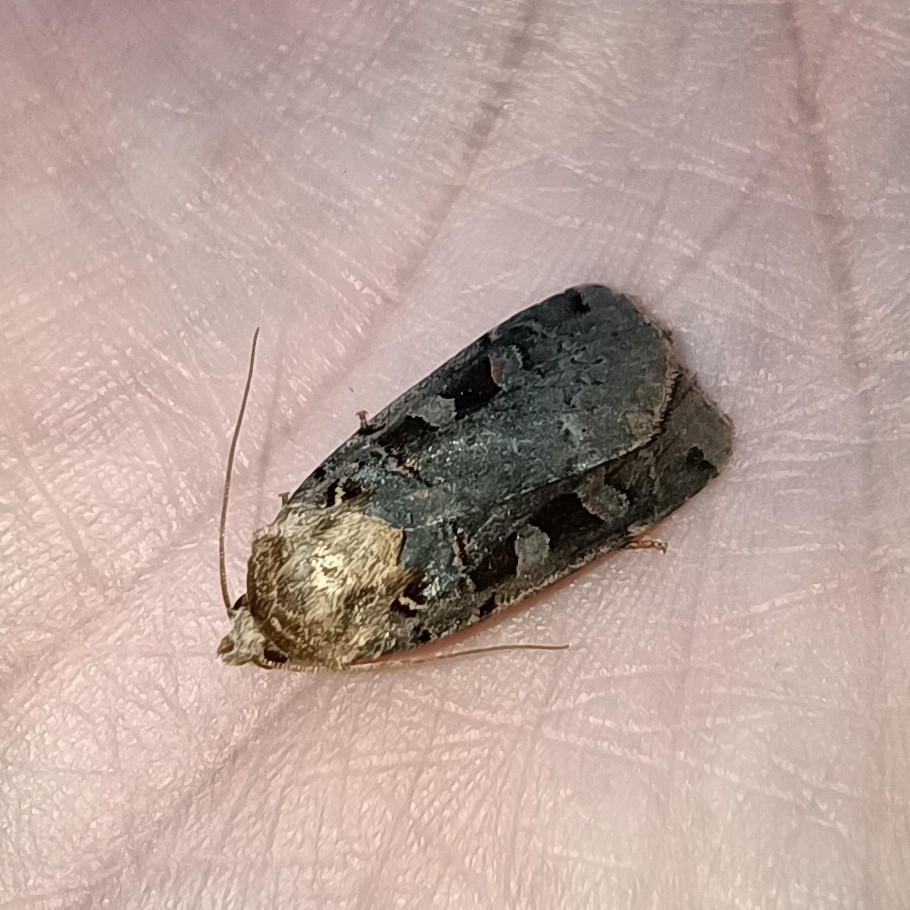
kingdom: Animalia
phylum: Arthropoda
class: Insecta
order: Lepidoptera
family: Noctuidae
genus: Xestia
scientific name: Xestia ditrapezium
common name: Triple-spotted clay
